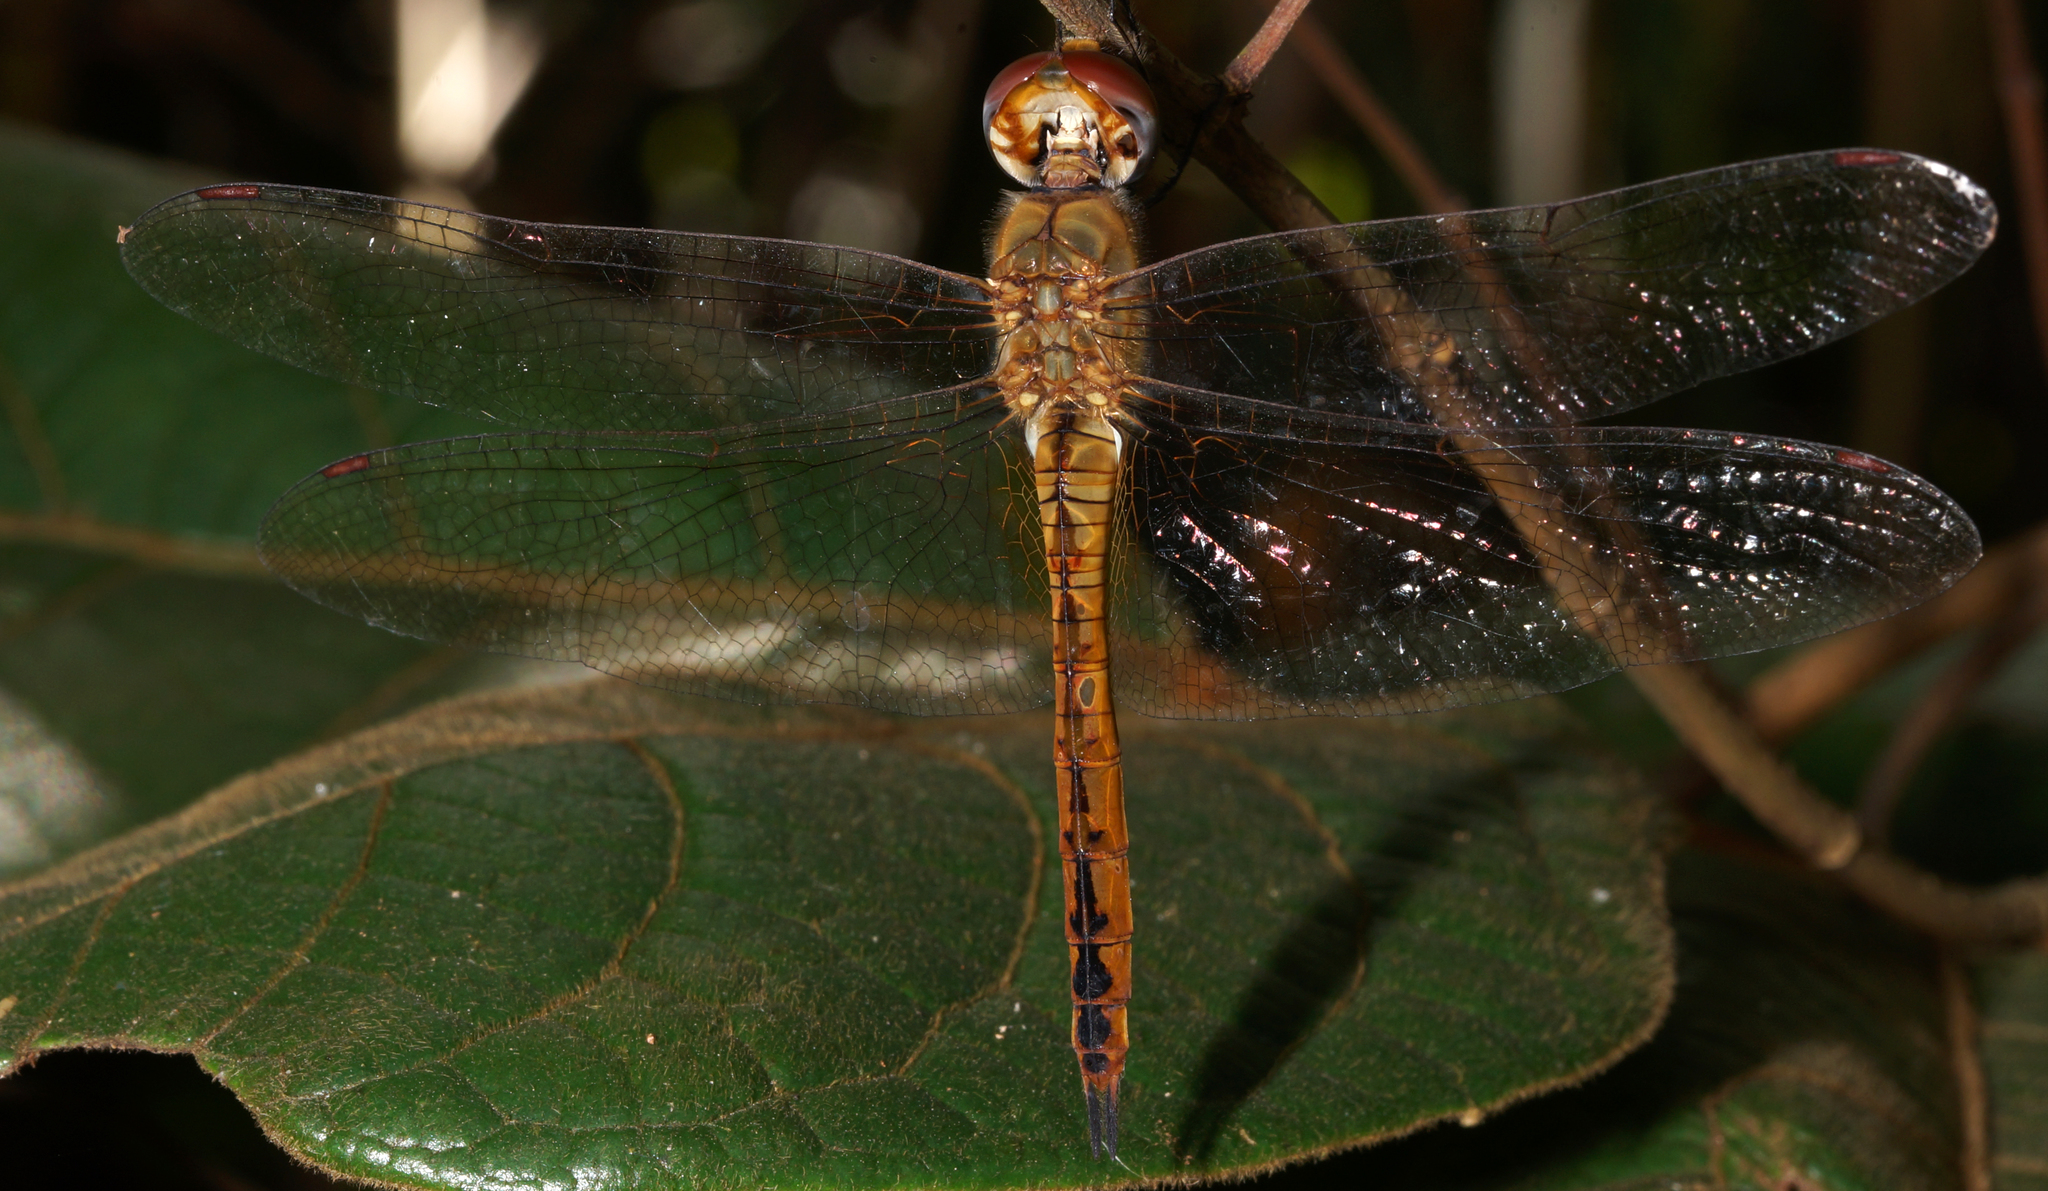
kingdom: Animalia
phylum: Arthropoda
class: Insecta
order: Odonata
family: Libellulidae
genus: Pantala
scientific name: Pantala flavescens
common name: Wandering glider
